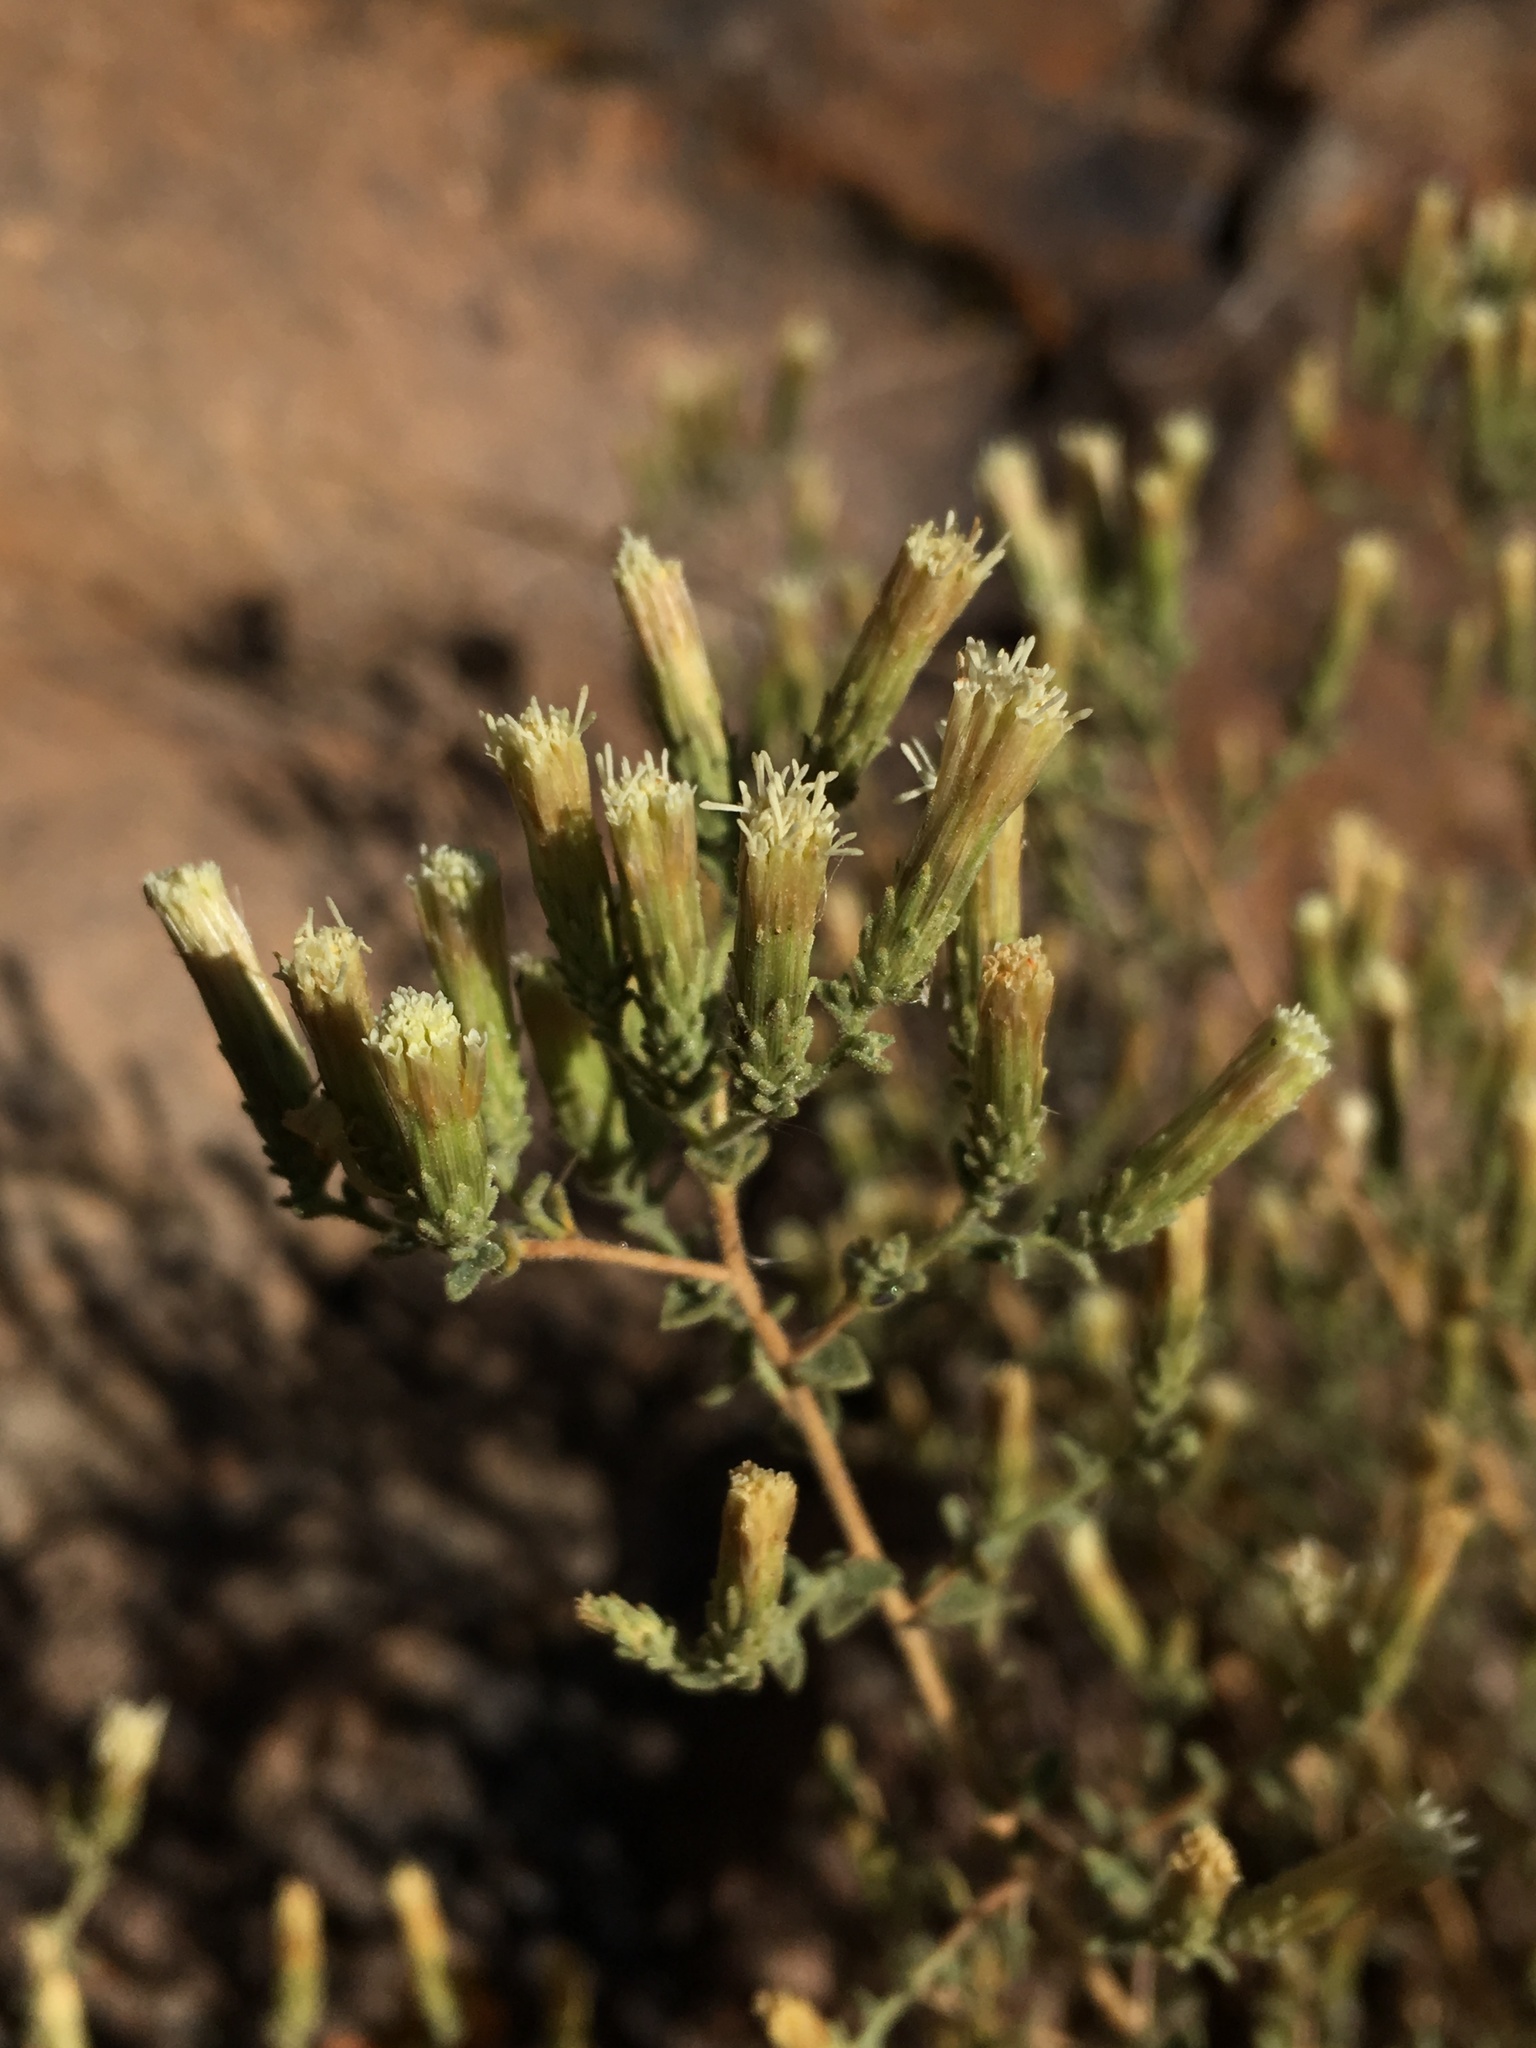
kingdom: Plantae
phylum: Tracheophyta
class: Magnoliopsida
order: Asterales
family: Asteraceae
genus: Brickellia
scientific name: Brickellia microphylla
